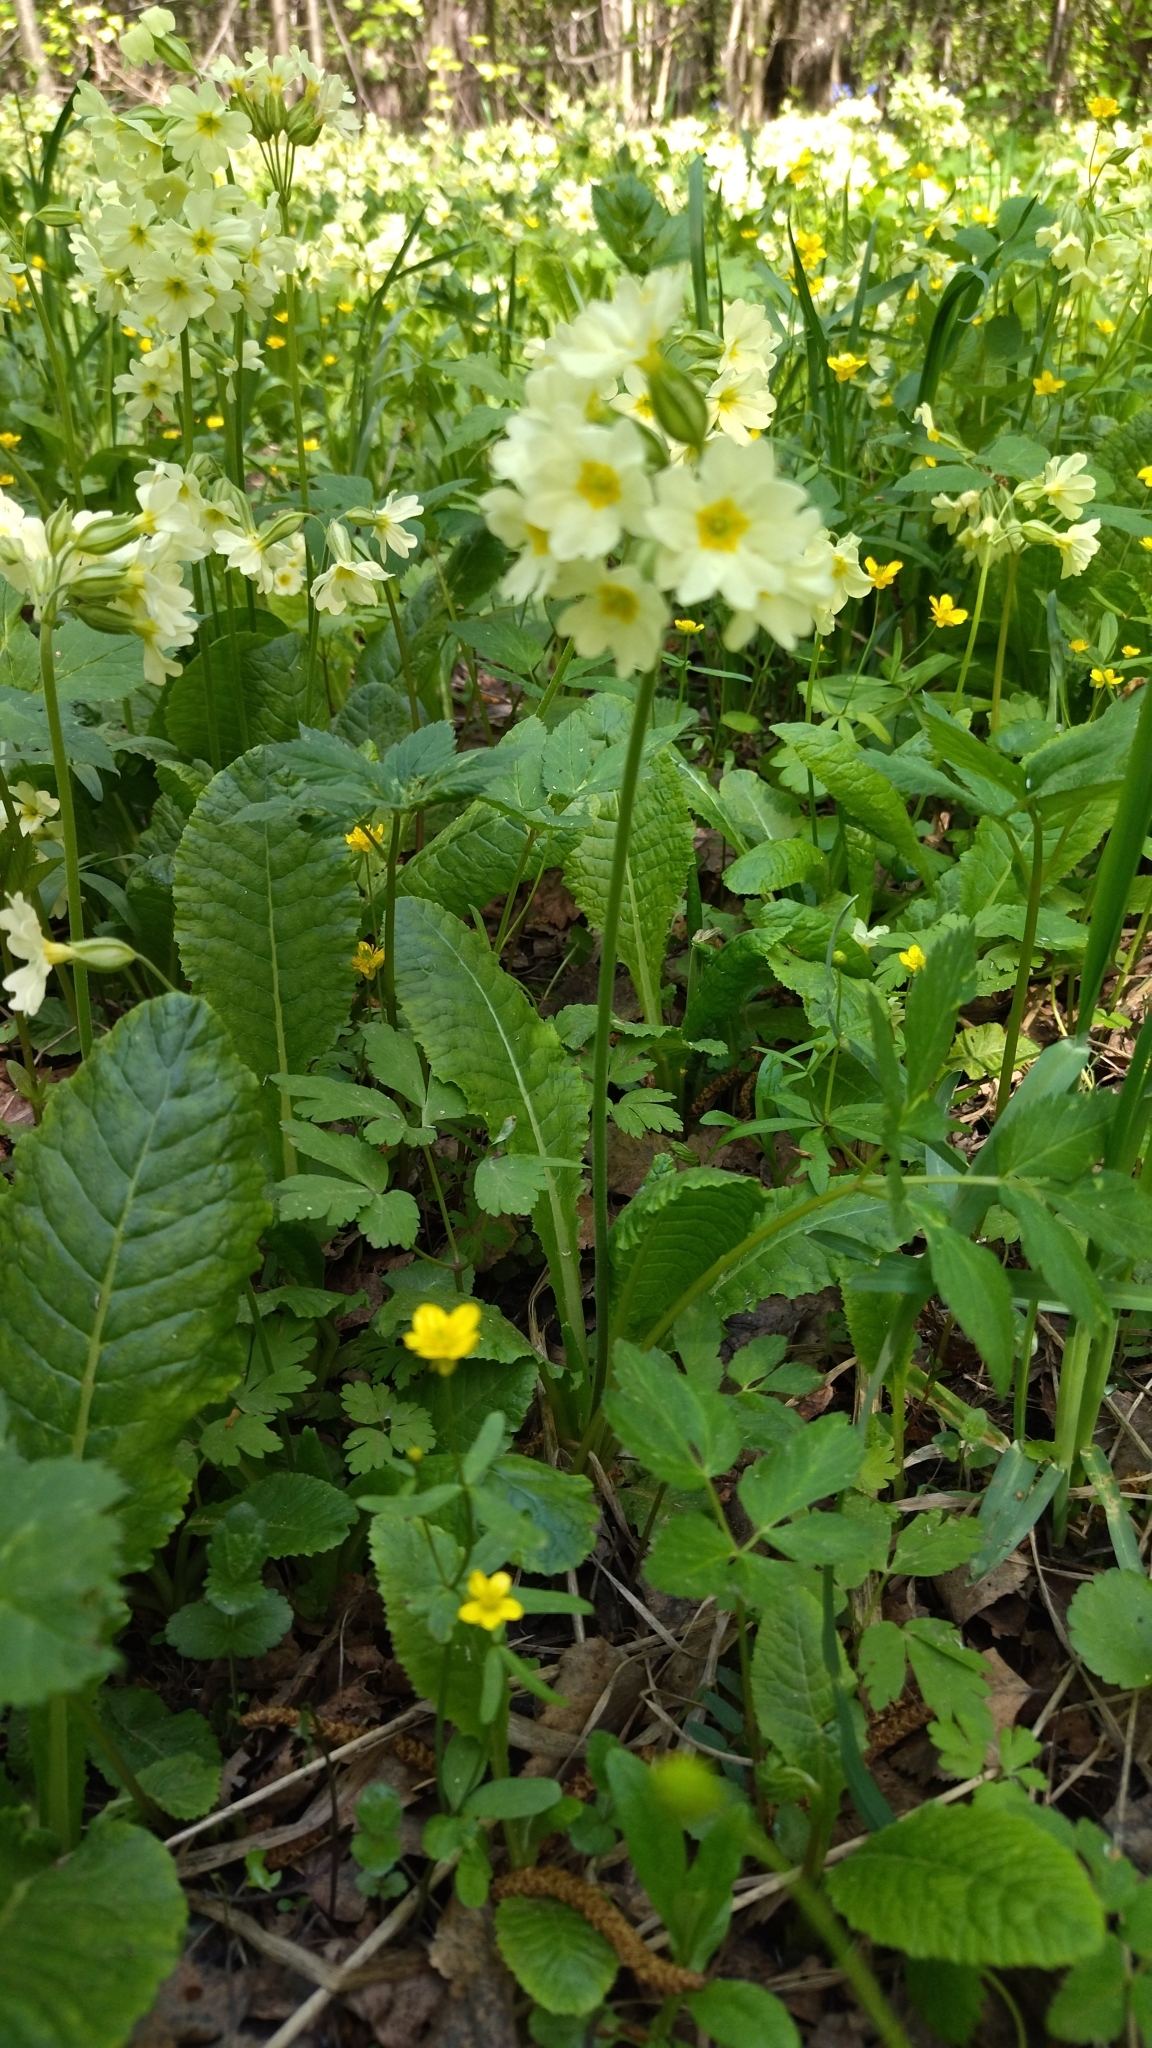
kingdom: Plantae
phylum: Tracheophyta
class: Magnoliopsida
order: Ericales
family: Primulaceae
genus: Primula
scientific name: Primula elatior
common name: Oxlip
